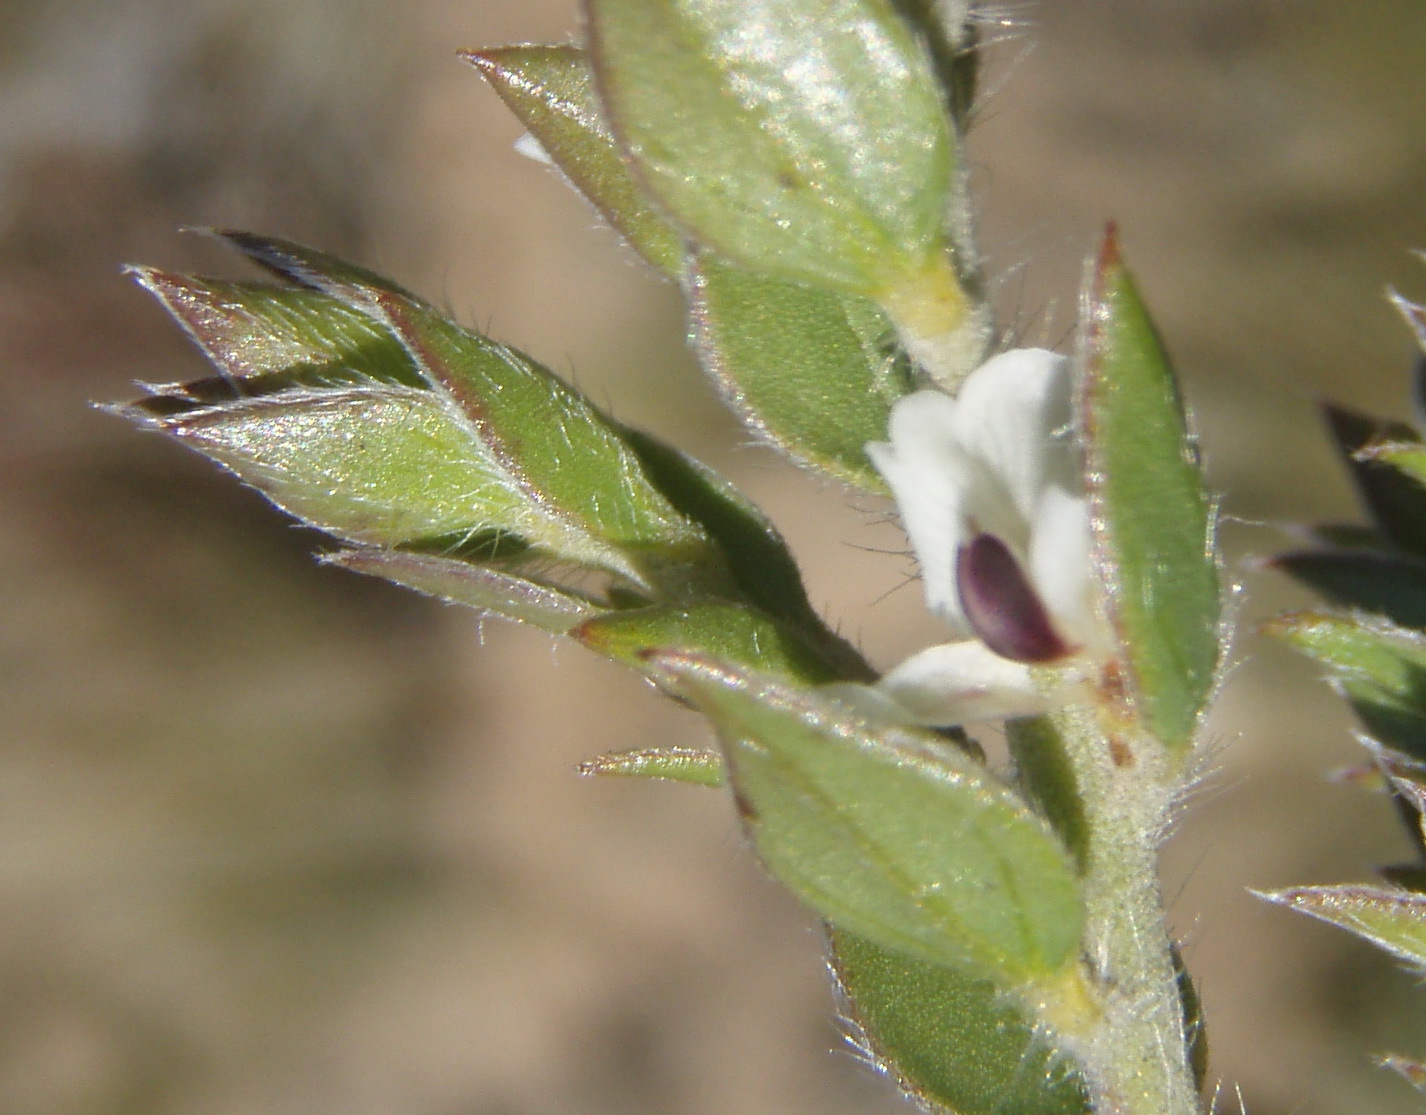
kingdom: Plantae
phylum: Tracheophyta
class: Magnoliopsida
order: Fabales
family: Fabaceae
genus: Amphithalea
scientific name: Amphithalea micrantha
